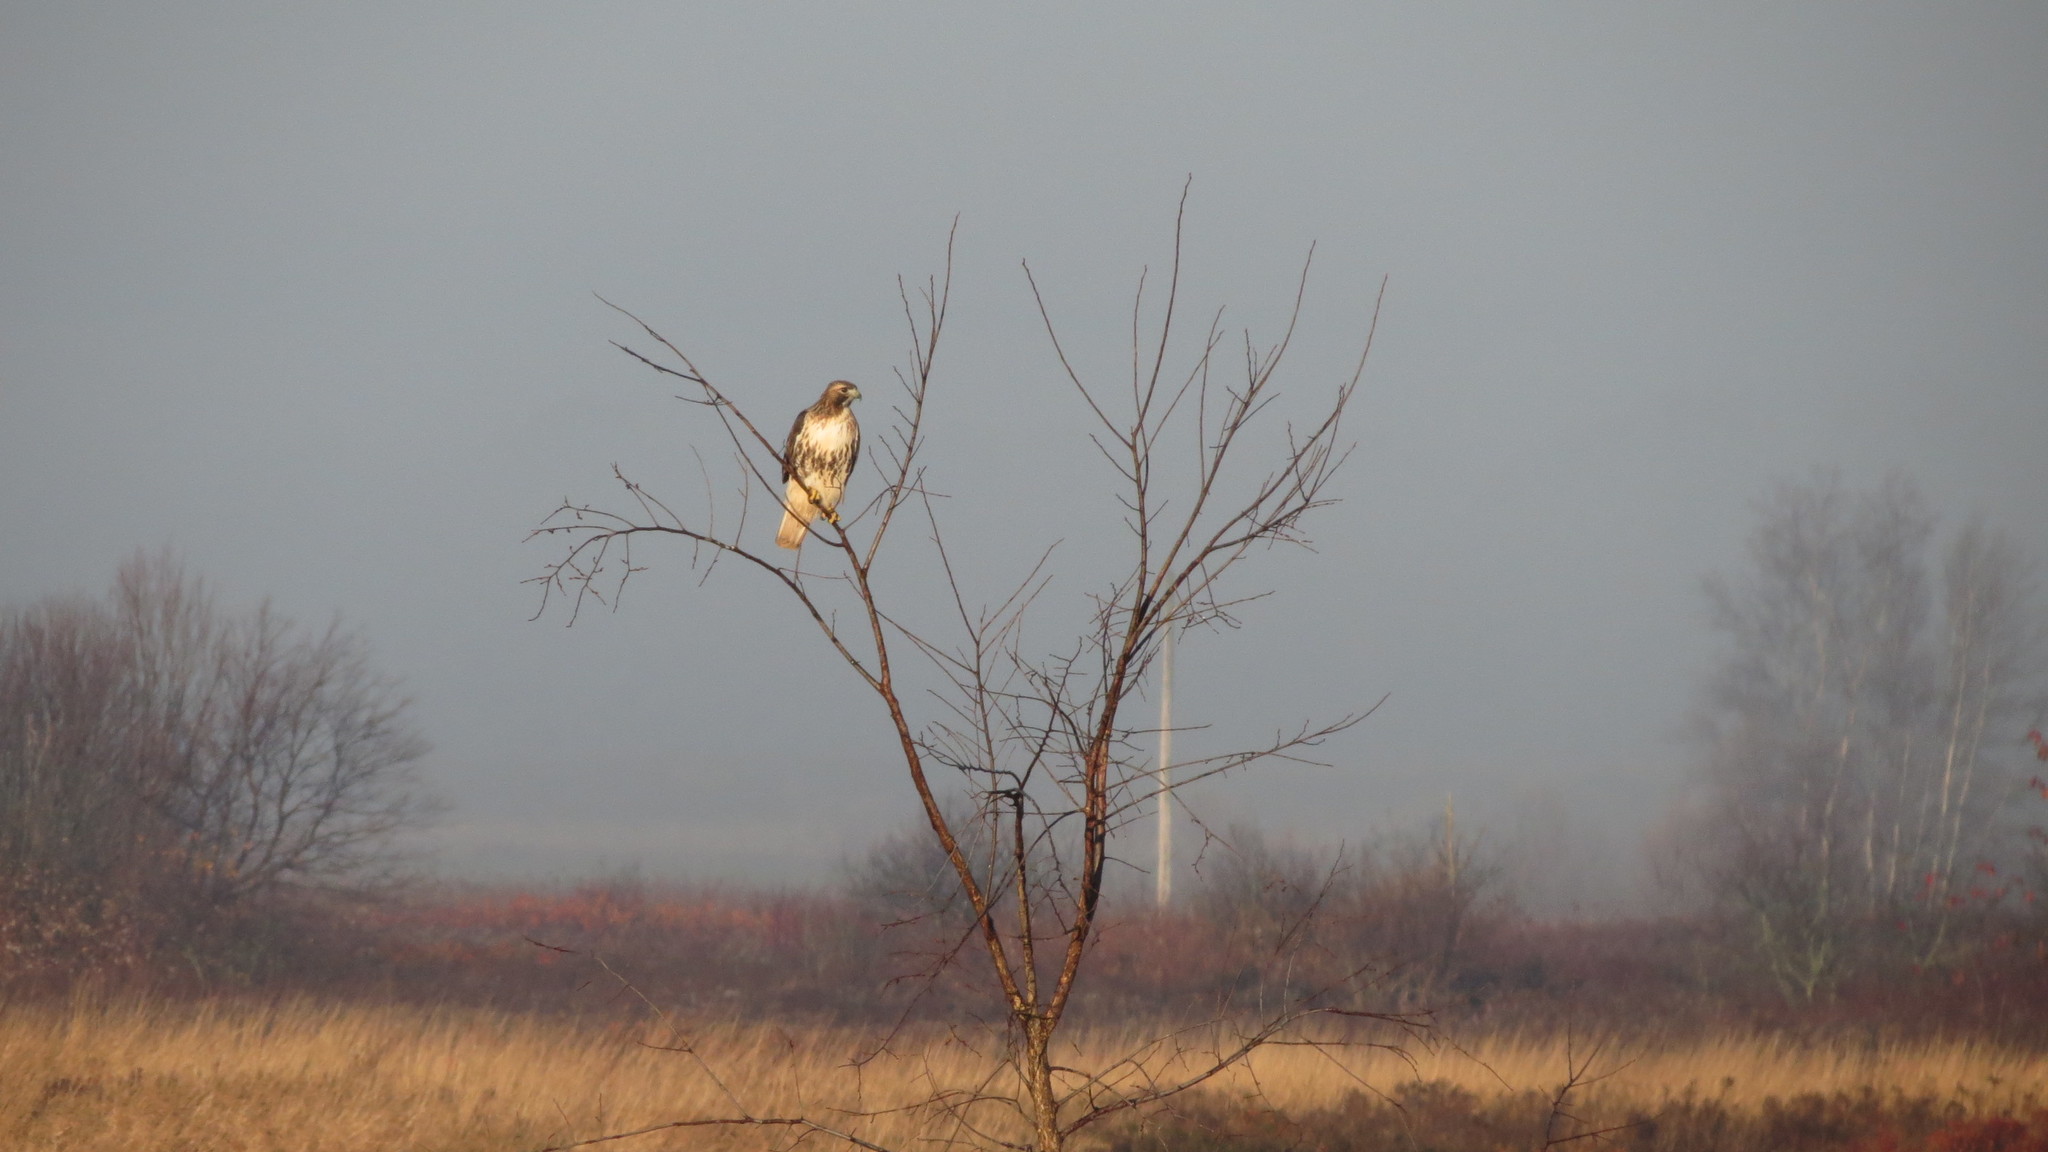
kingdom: Animalia
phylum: Chordata
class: Aves
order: Accipitriformes
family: Accipitridae
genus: Buteo
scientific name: Buteo jamaicensis
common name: Red-tailed hawk
